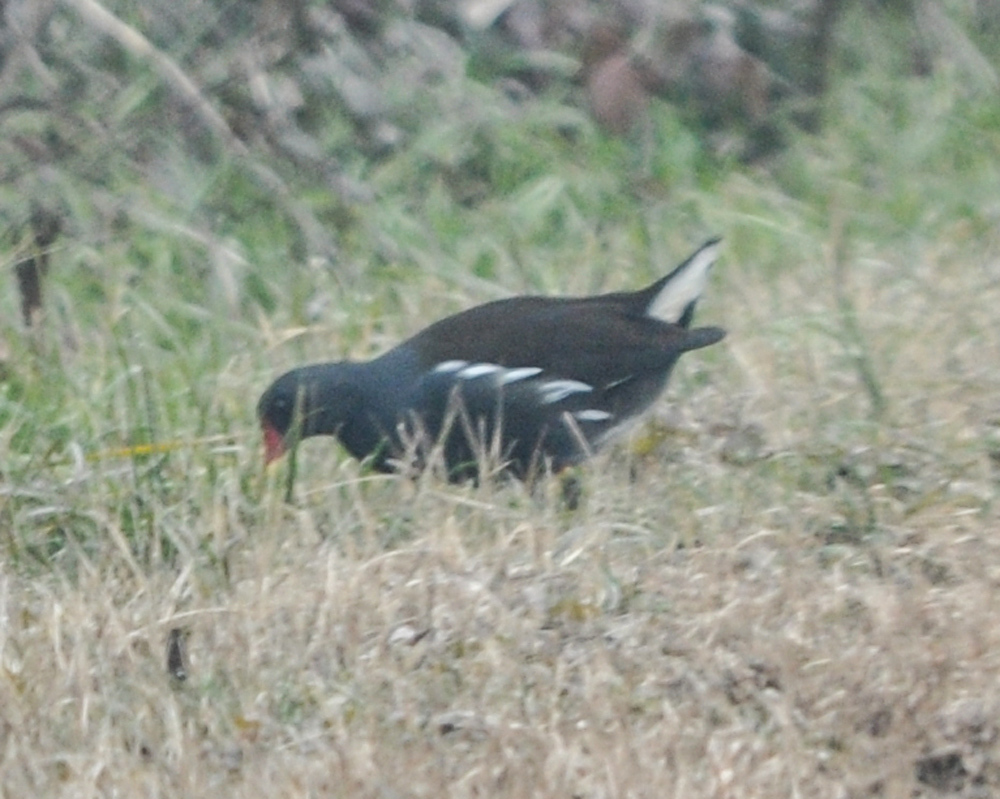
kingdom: Animalia
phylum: Chordata
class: Aves
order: Gruiformes
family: Rallidae
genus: Gallinula
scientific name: Gallinula chloropus
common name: Common moorhen
